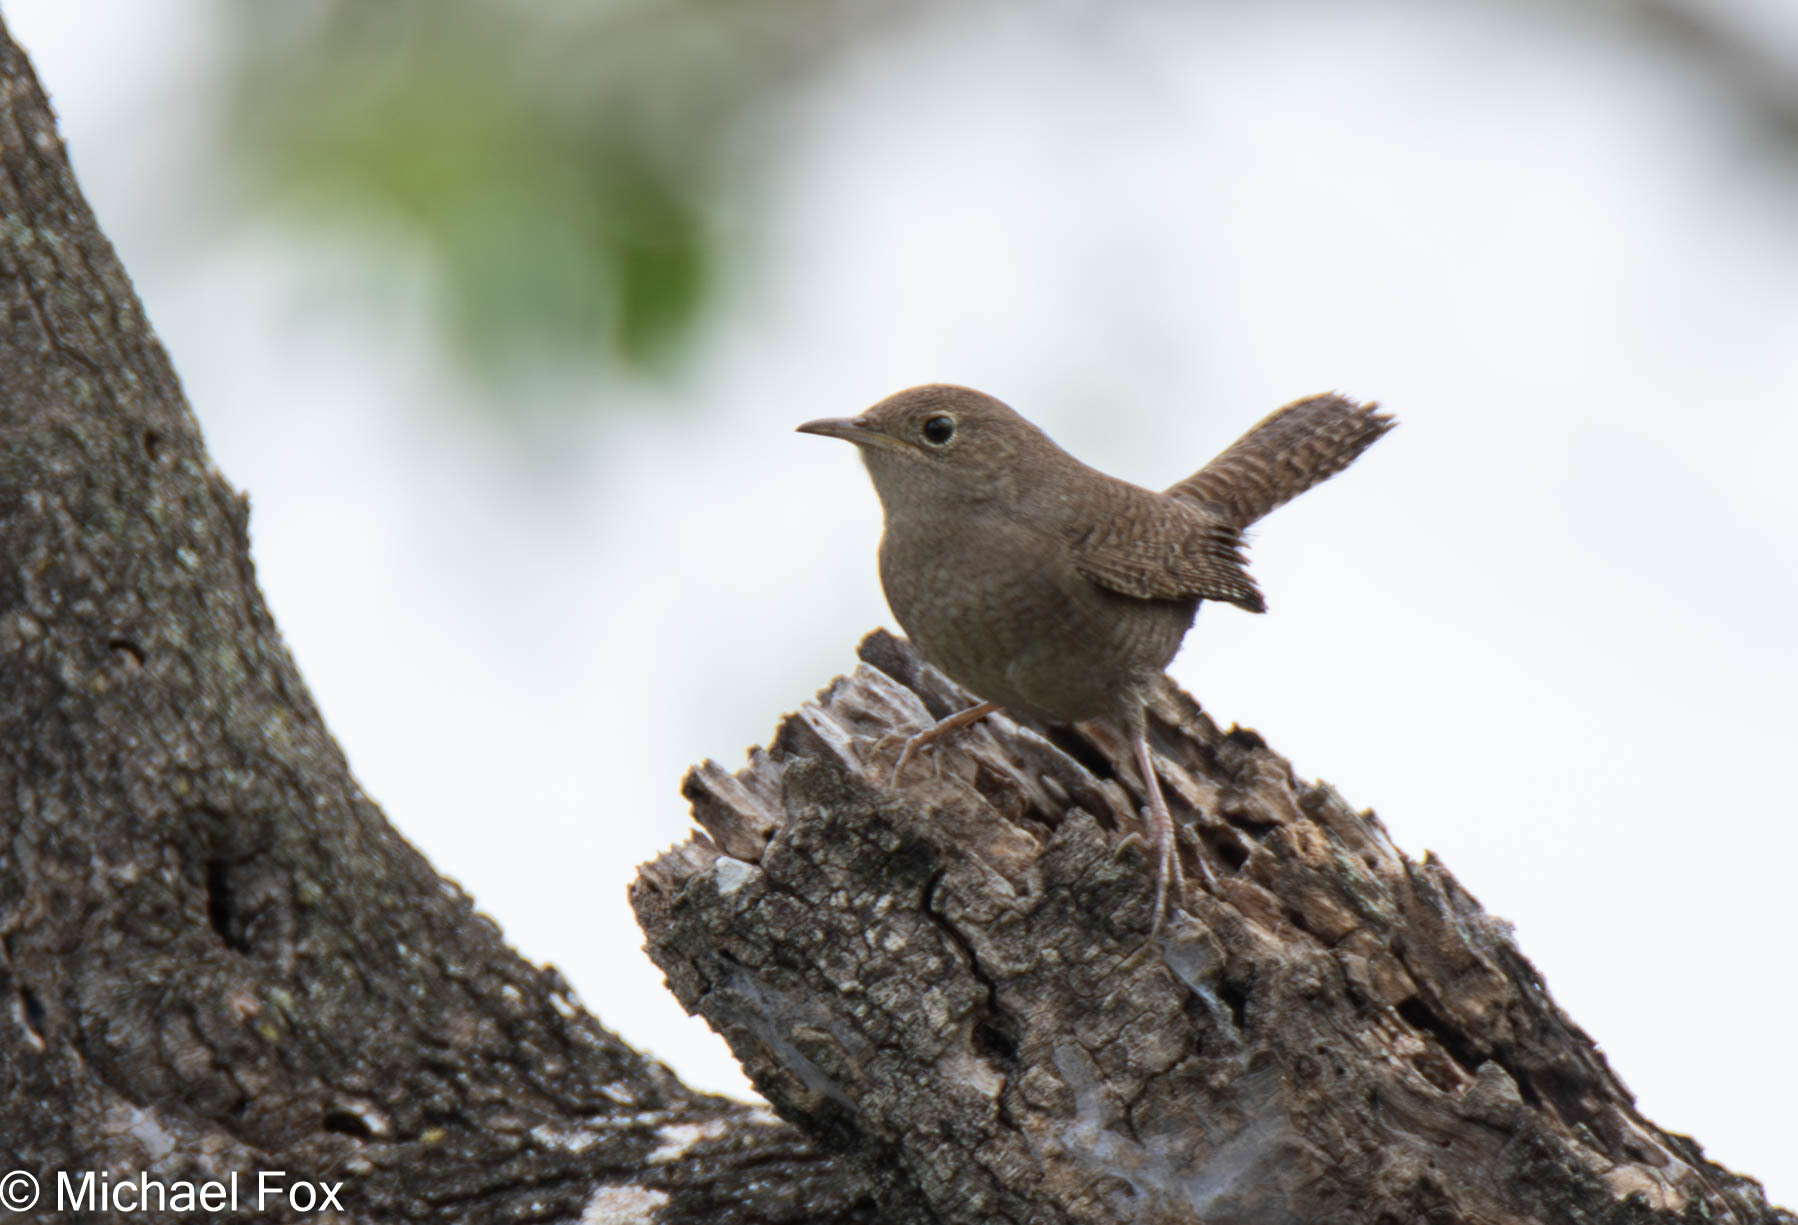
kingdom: Animalia
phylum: Chordata
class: Aves
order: Passeriformes
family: Troglodytidae
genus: Troglodytes
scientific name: Troglodytes aedon
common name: House wren
